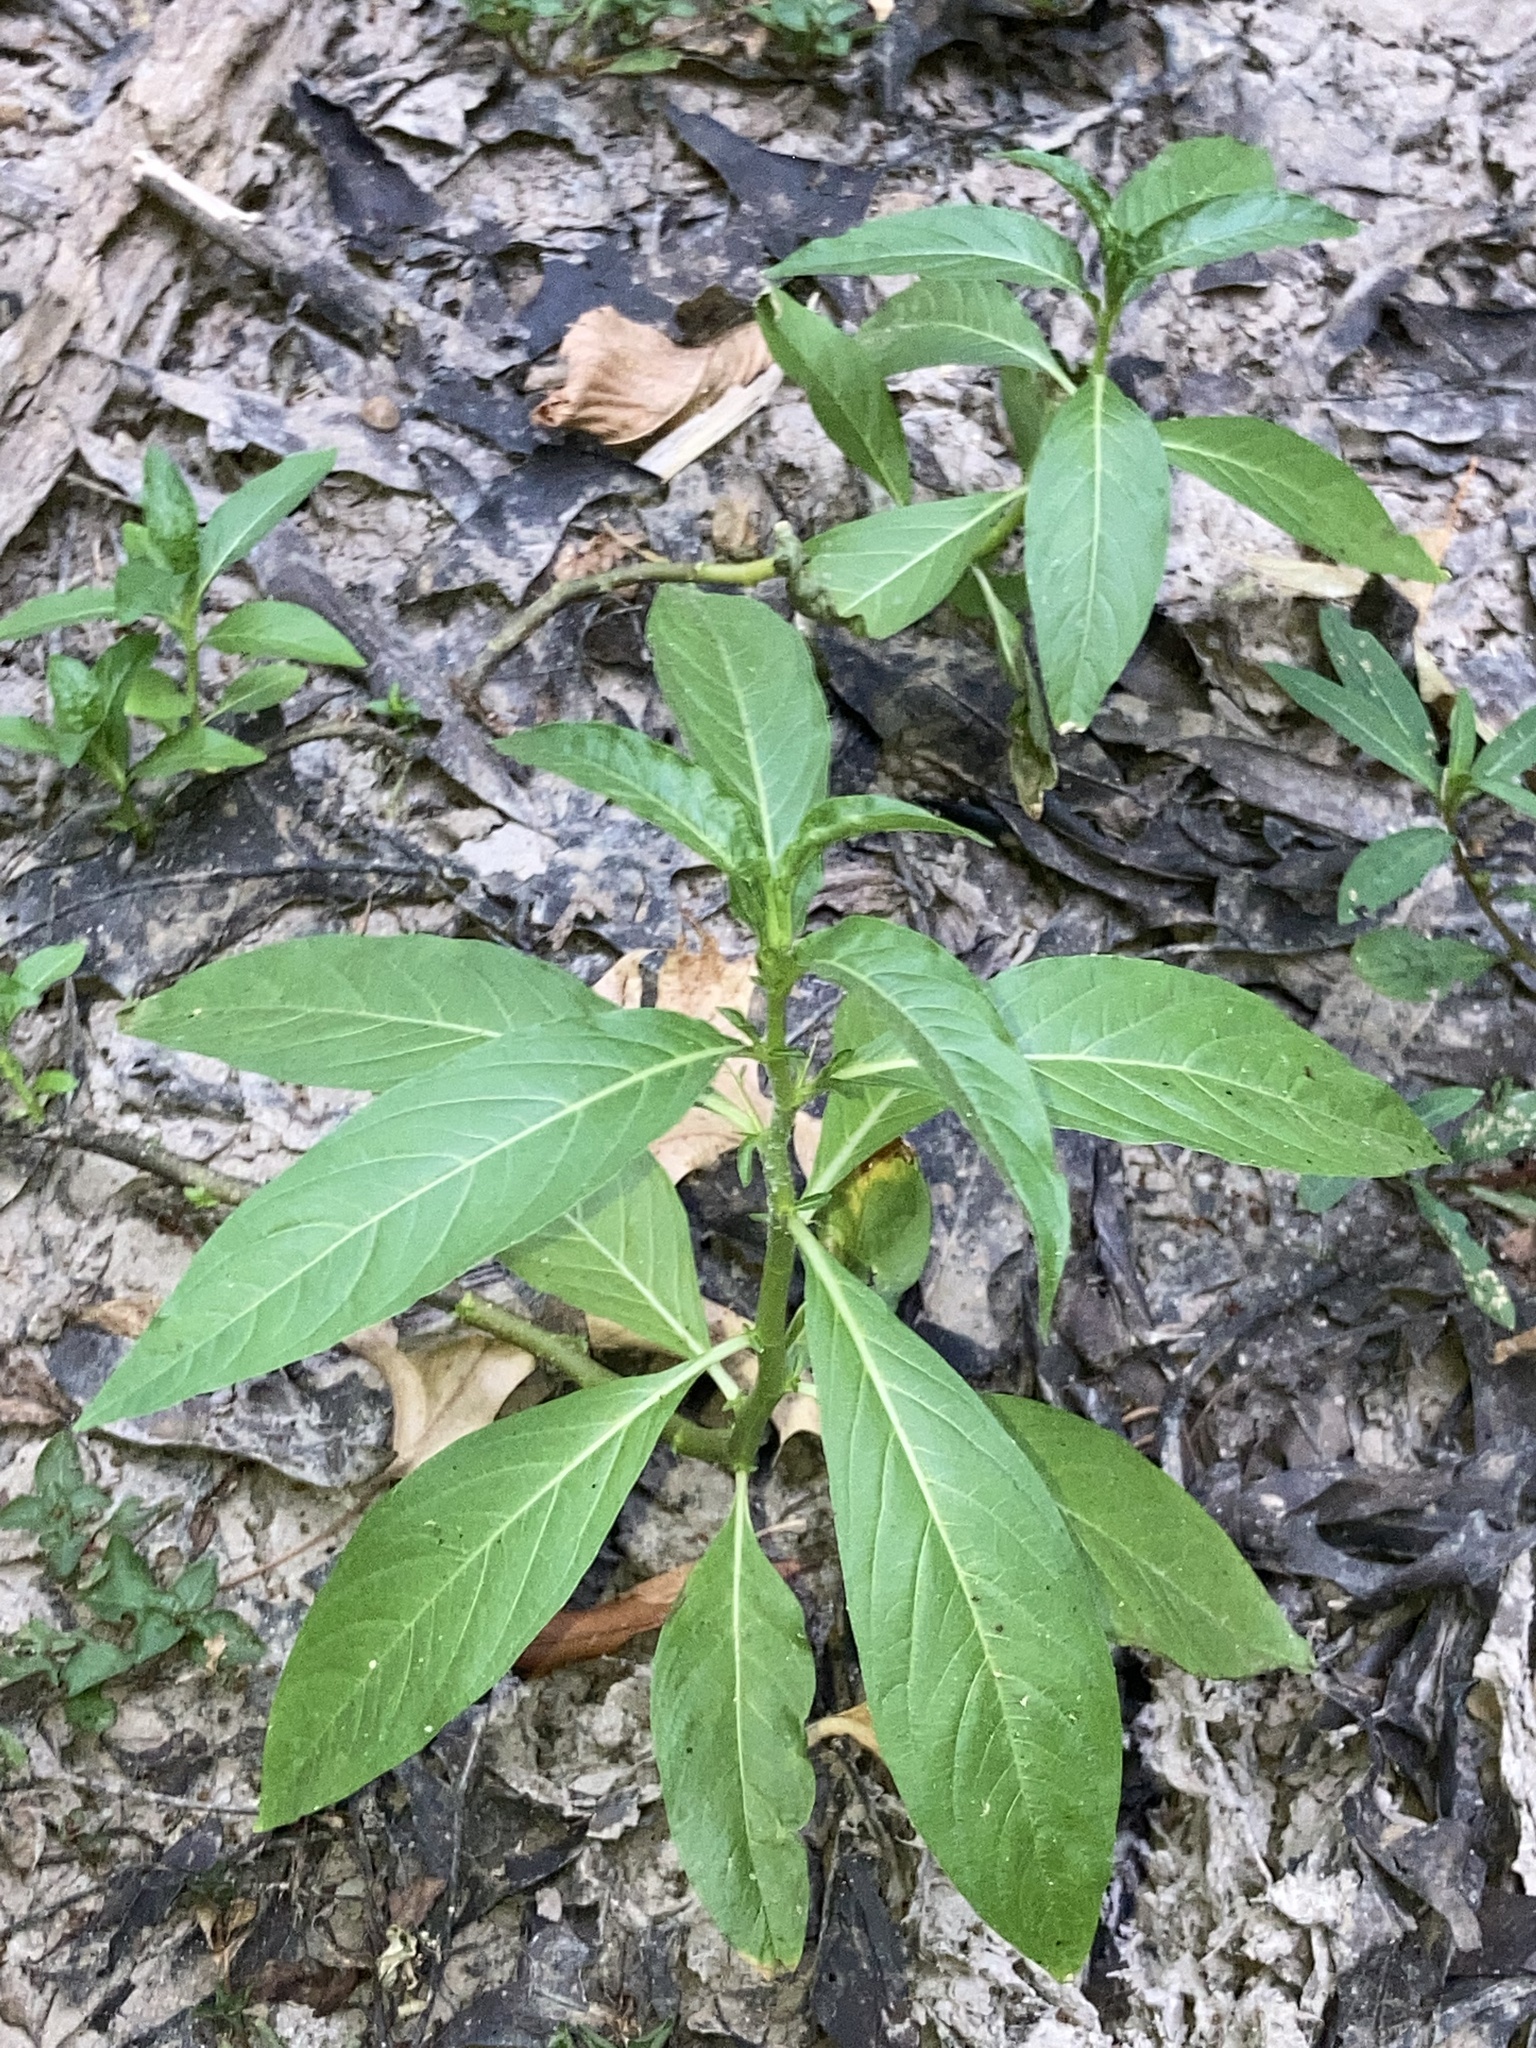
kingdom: Plantae
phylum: Tracheophyta
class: Magnoliopsida
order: Solanales
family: Hydroleaceae
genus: Hydrolea
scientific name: Hydrolea ovata
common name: Ovate false fiddleleaf
